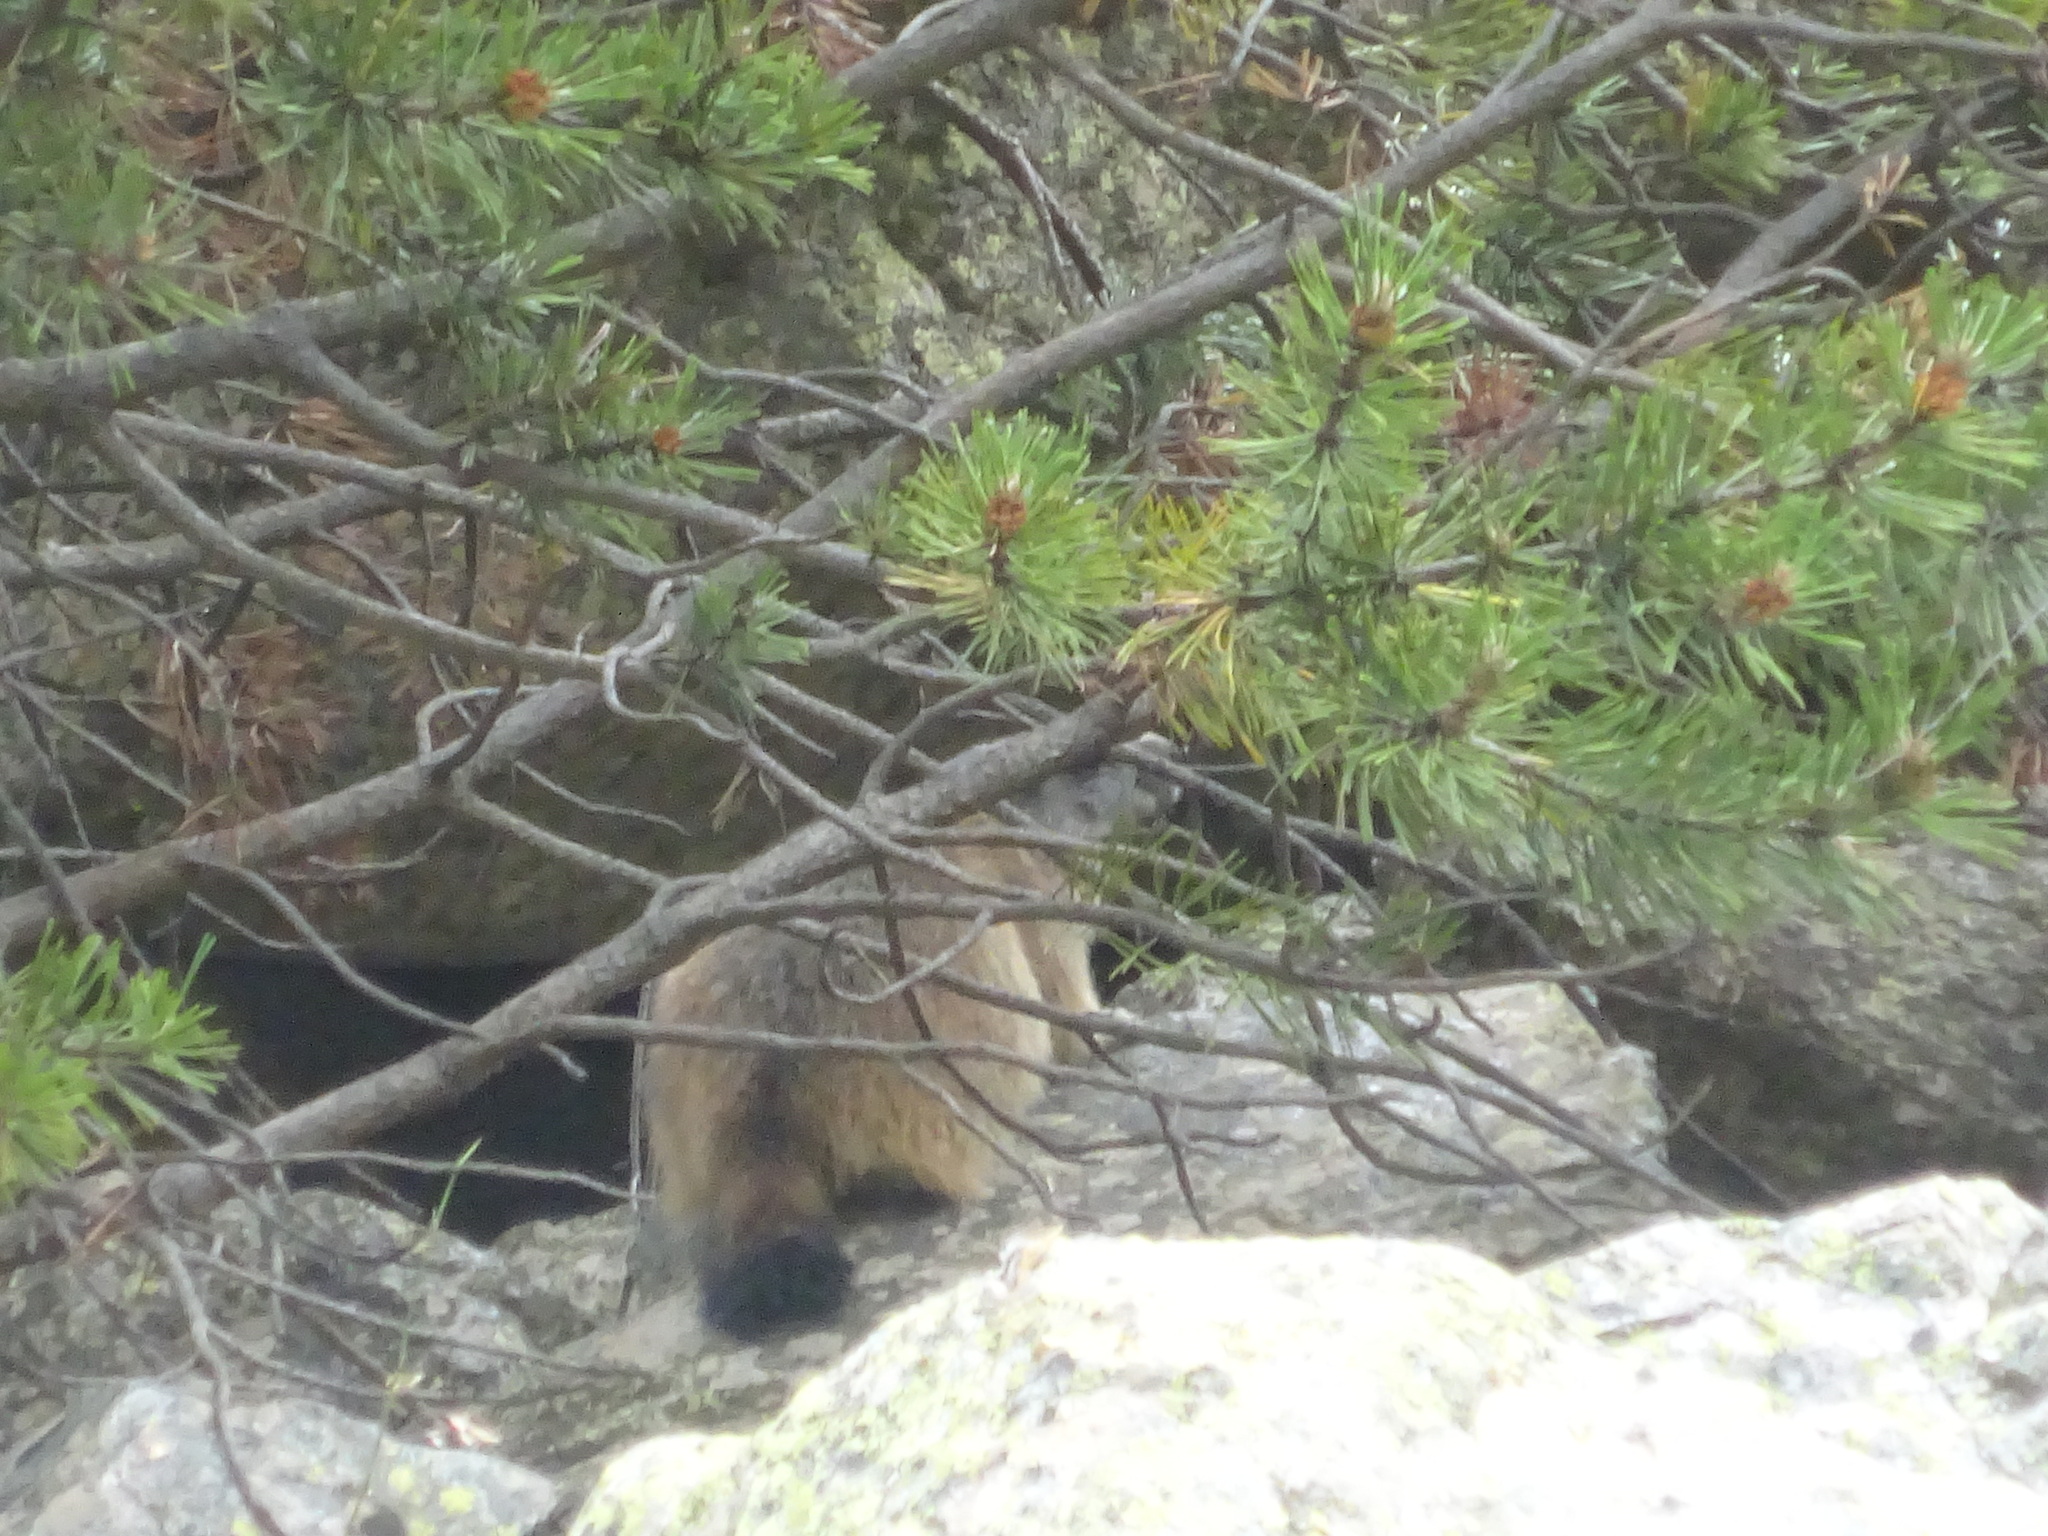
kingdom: Animalia
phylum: Chordata
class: Mammalia
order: Rodentia
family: Sciuridae
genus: Marmota
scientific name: Marmota marmota
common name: Alpine marmot
